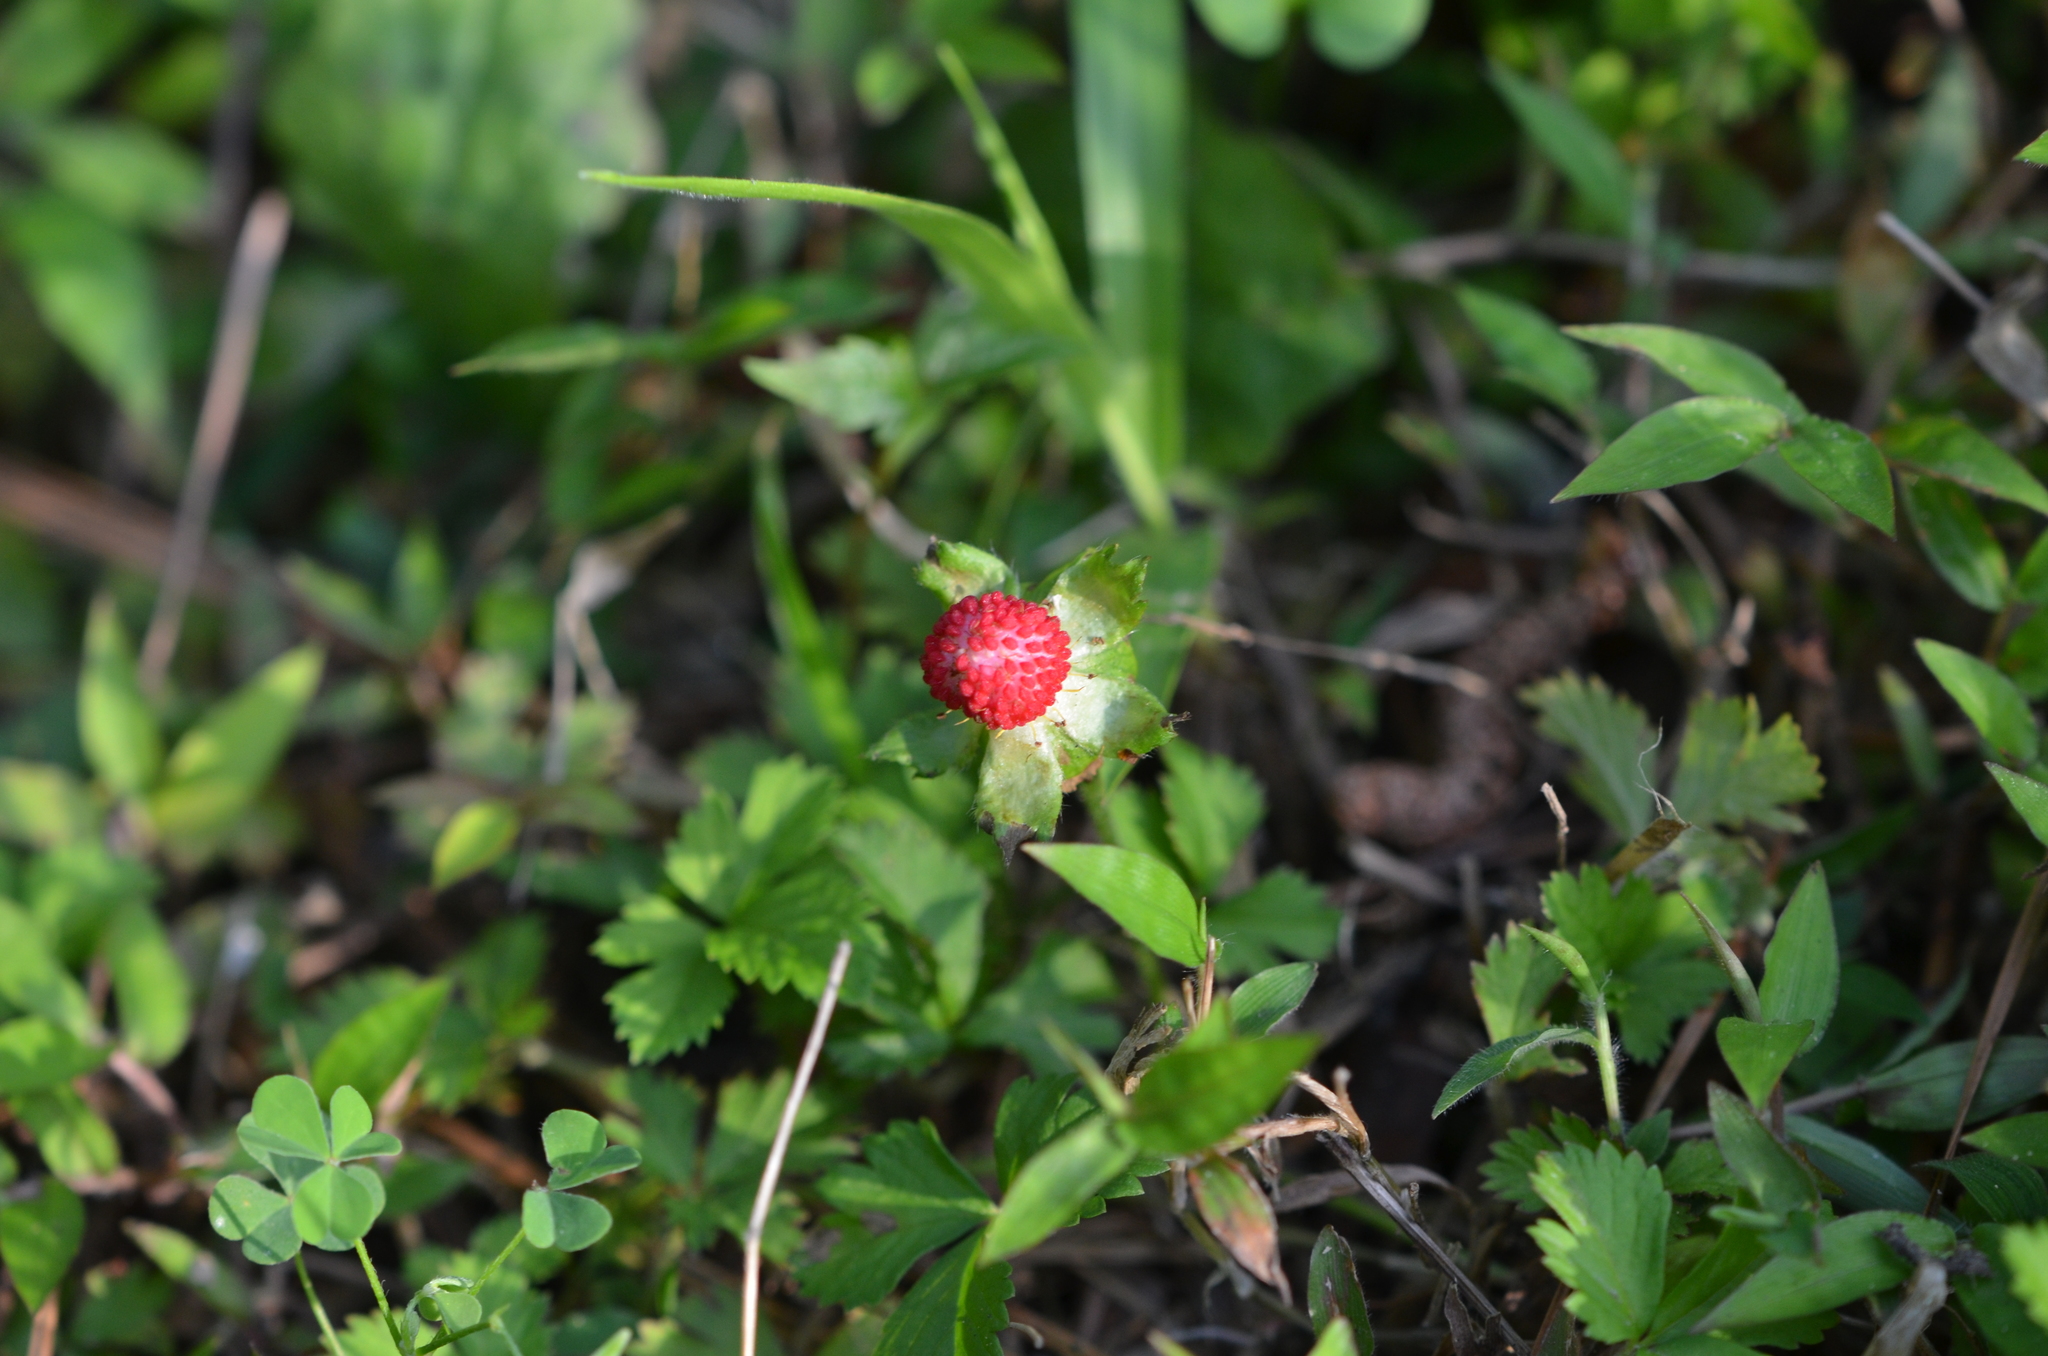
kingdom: Plantae
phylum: Tracheophyta
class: Magnoliopsida
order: Rosales
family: Rosaceae
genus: Potentilla
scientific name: Potentilla indica
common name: Yellow-flowered strawberry
